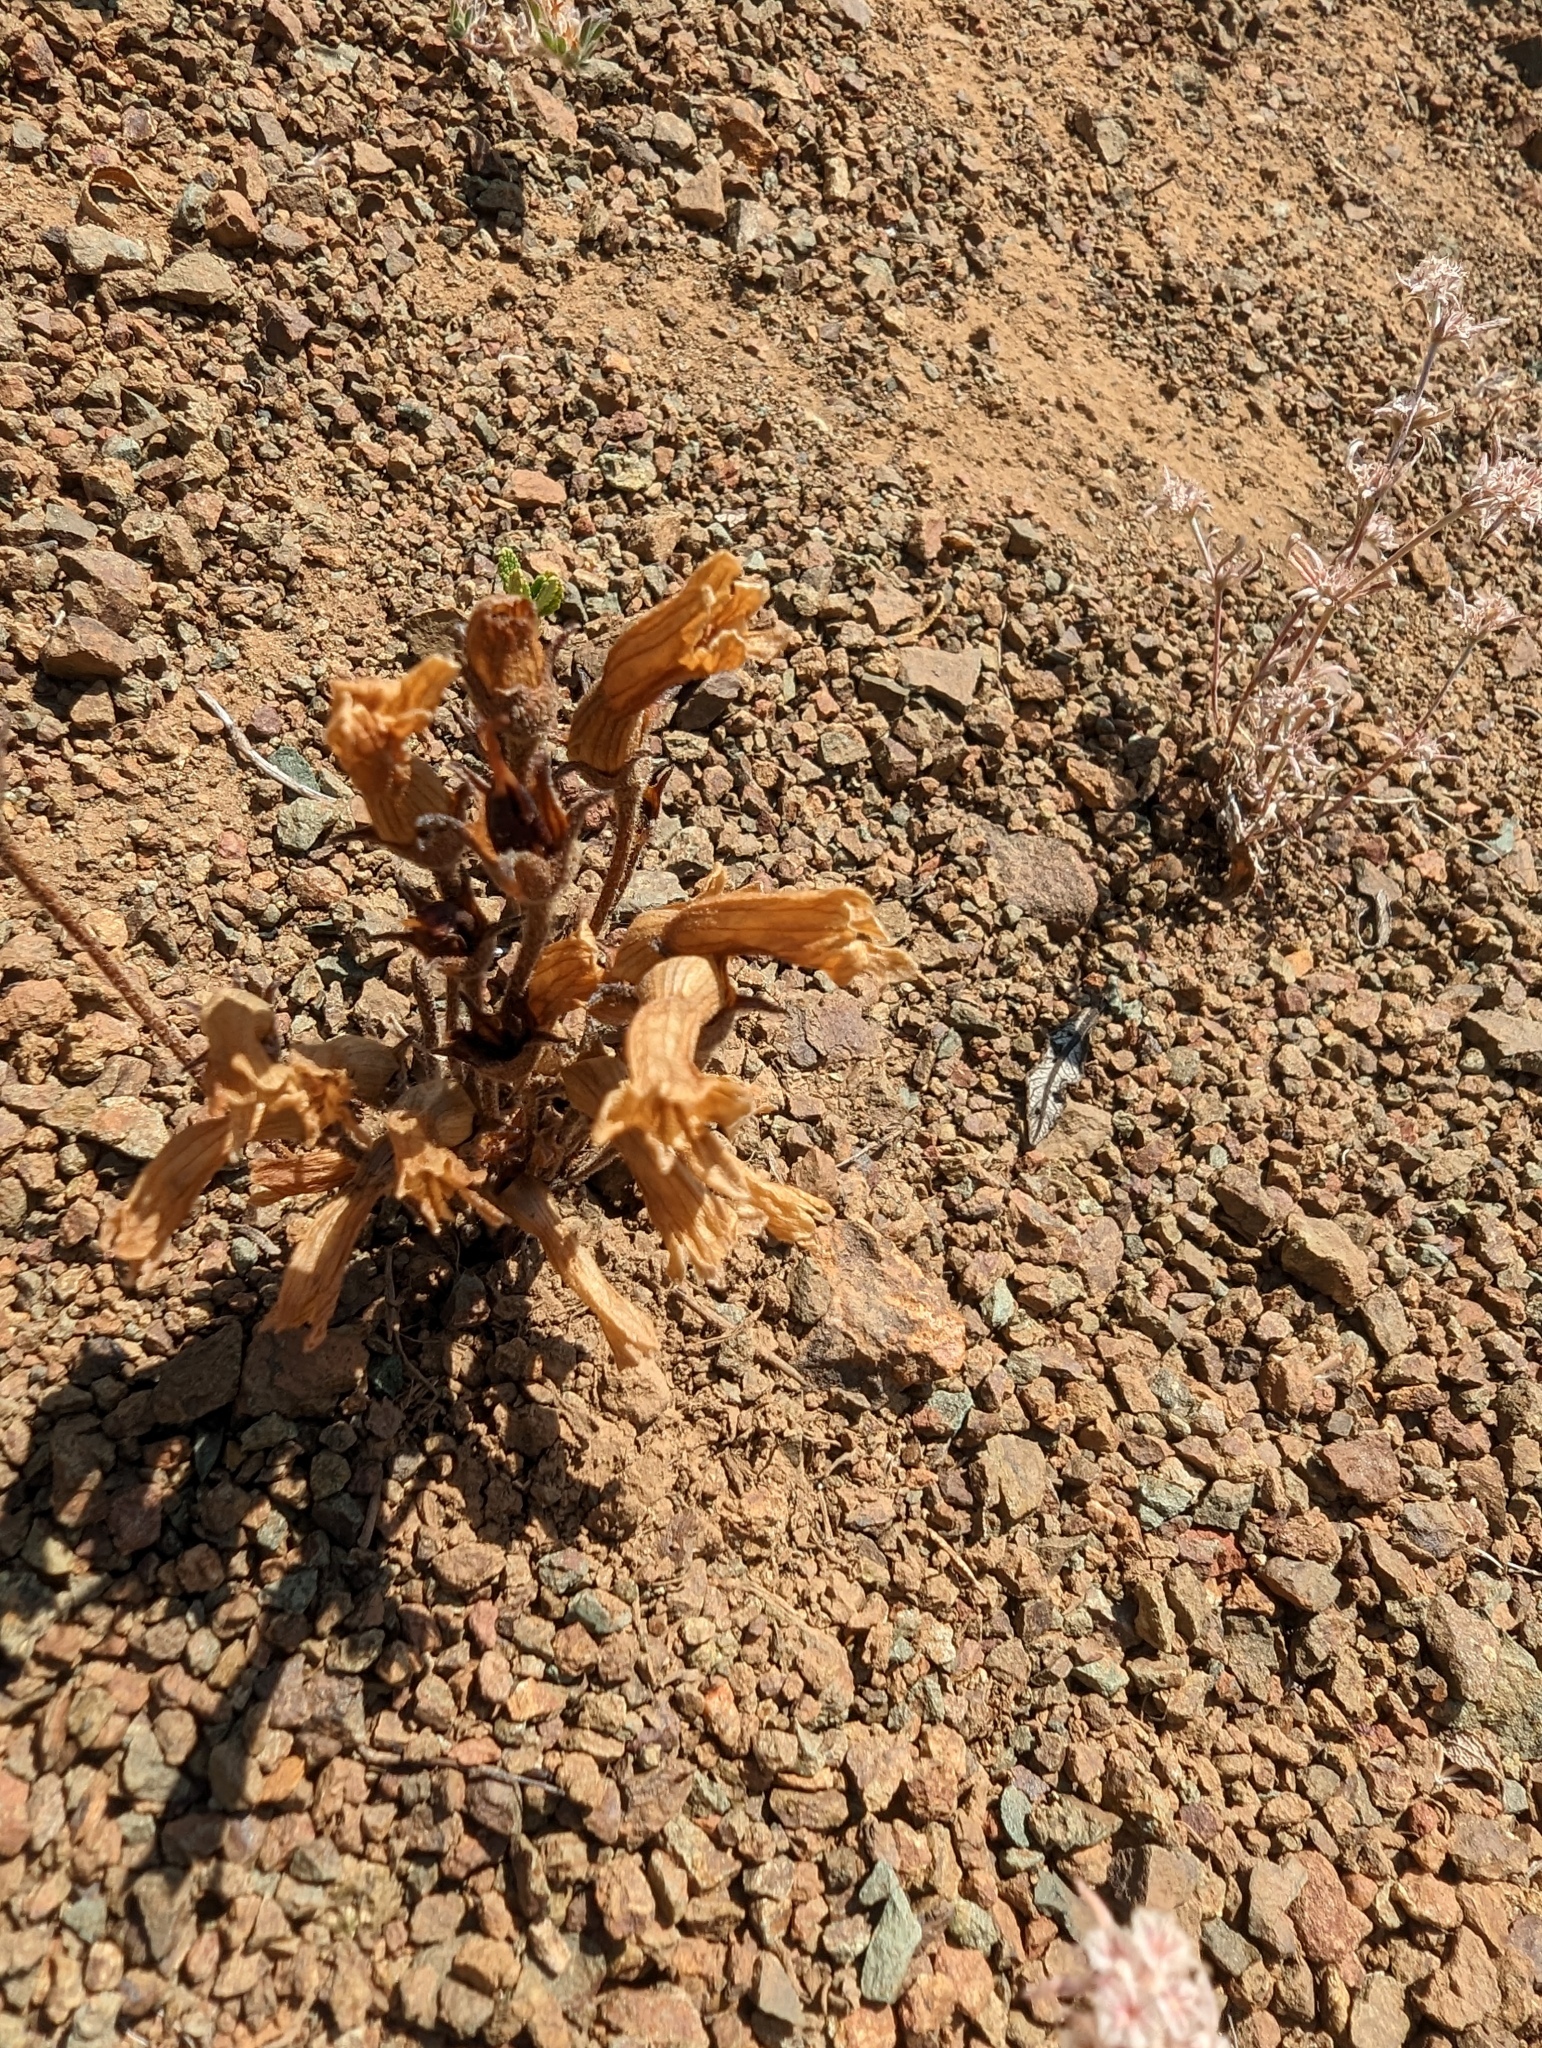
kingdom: Plantae
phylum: Tracheophyta
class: Magnoliopsida
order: Lamiales
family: Orobanchaceae
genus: Aphyllon
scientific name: Aphyllon franciscanum
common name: San francisco broomrape
